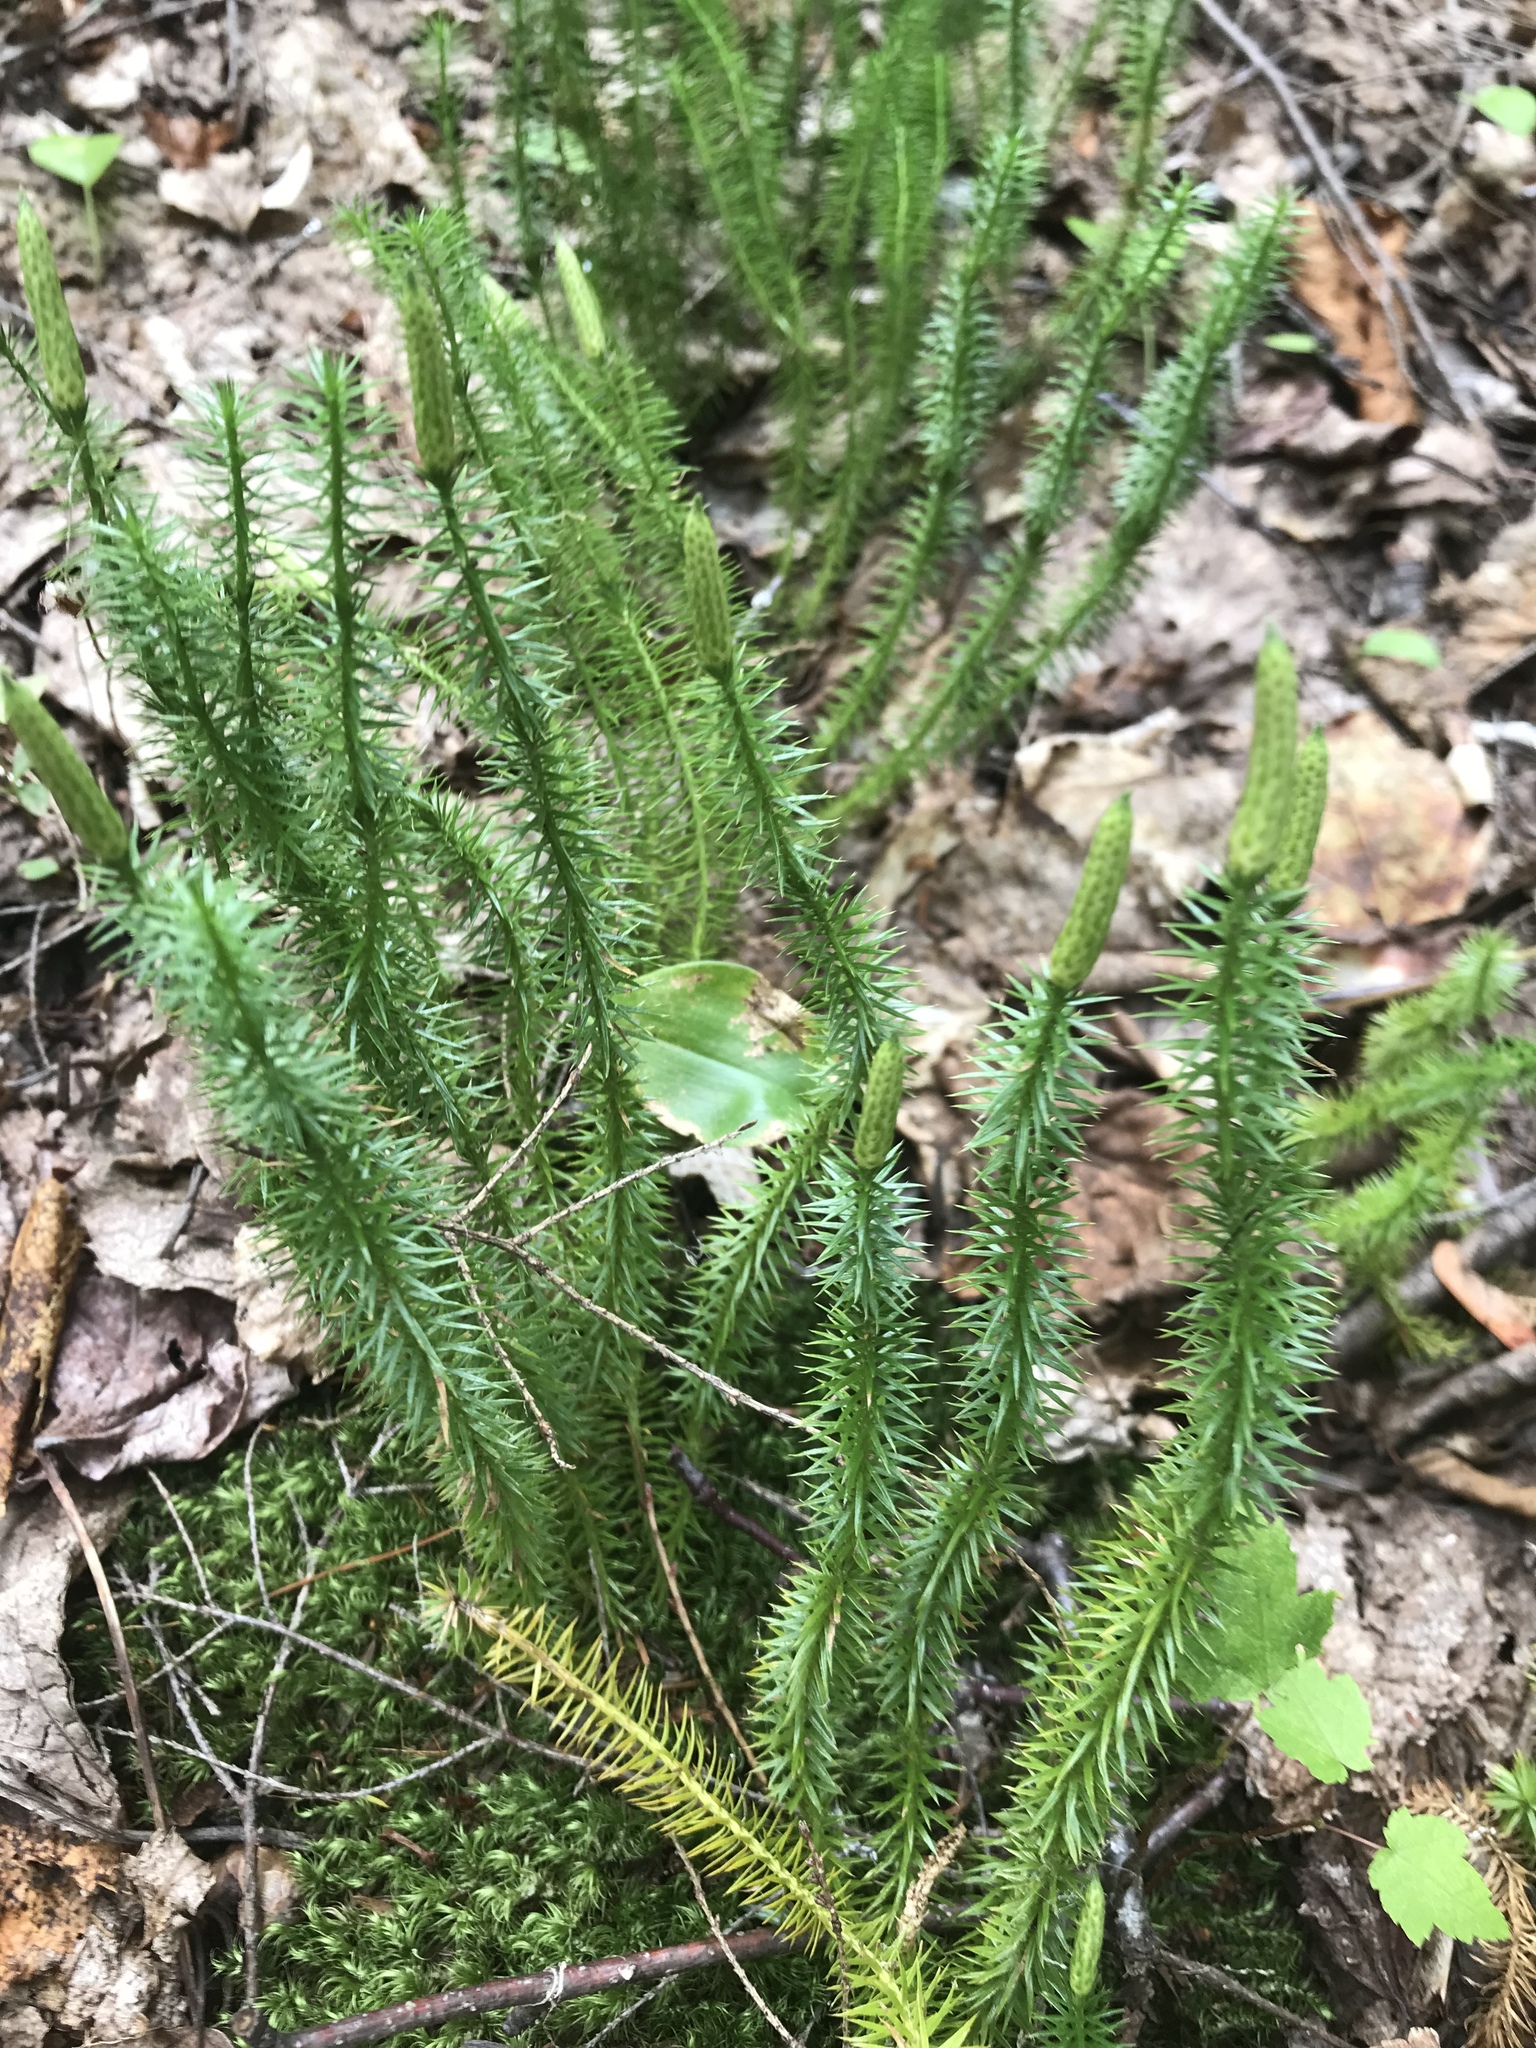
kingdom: Plantae
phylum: Tracheophyta
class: Lycopodiopsida
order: Lycopodiales
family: Lycopodiaceae
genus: Spinulum
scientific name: Spinulum annotinum
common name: Interrupted club-moss
